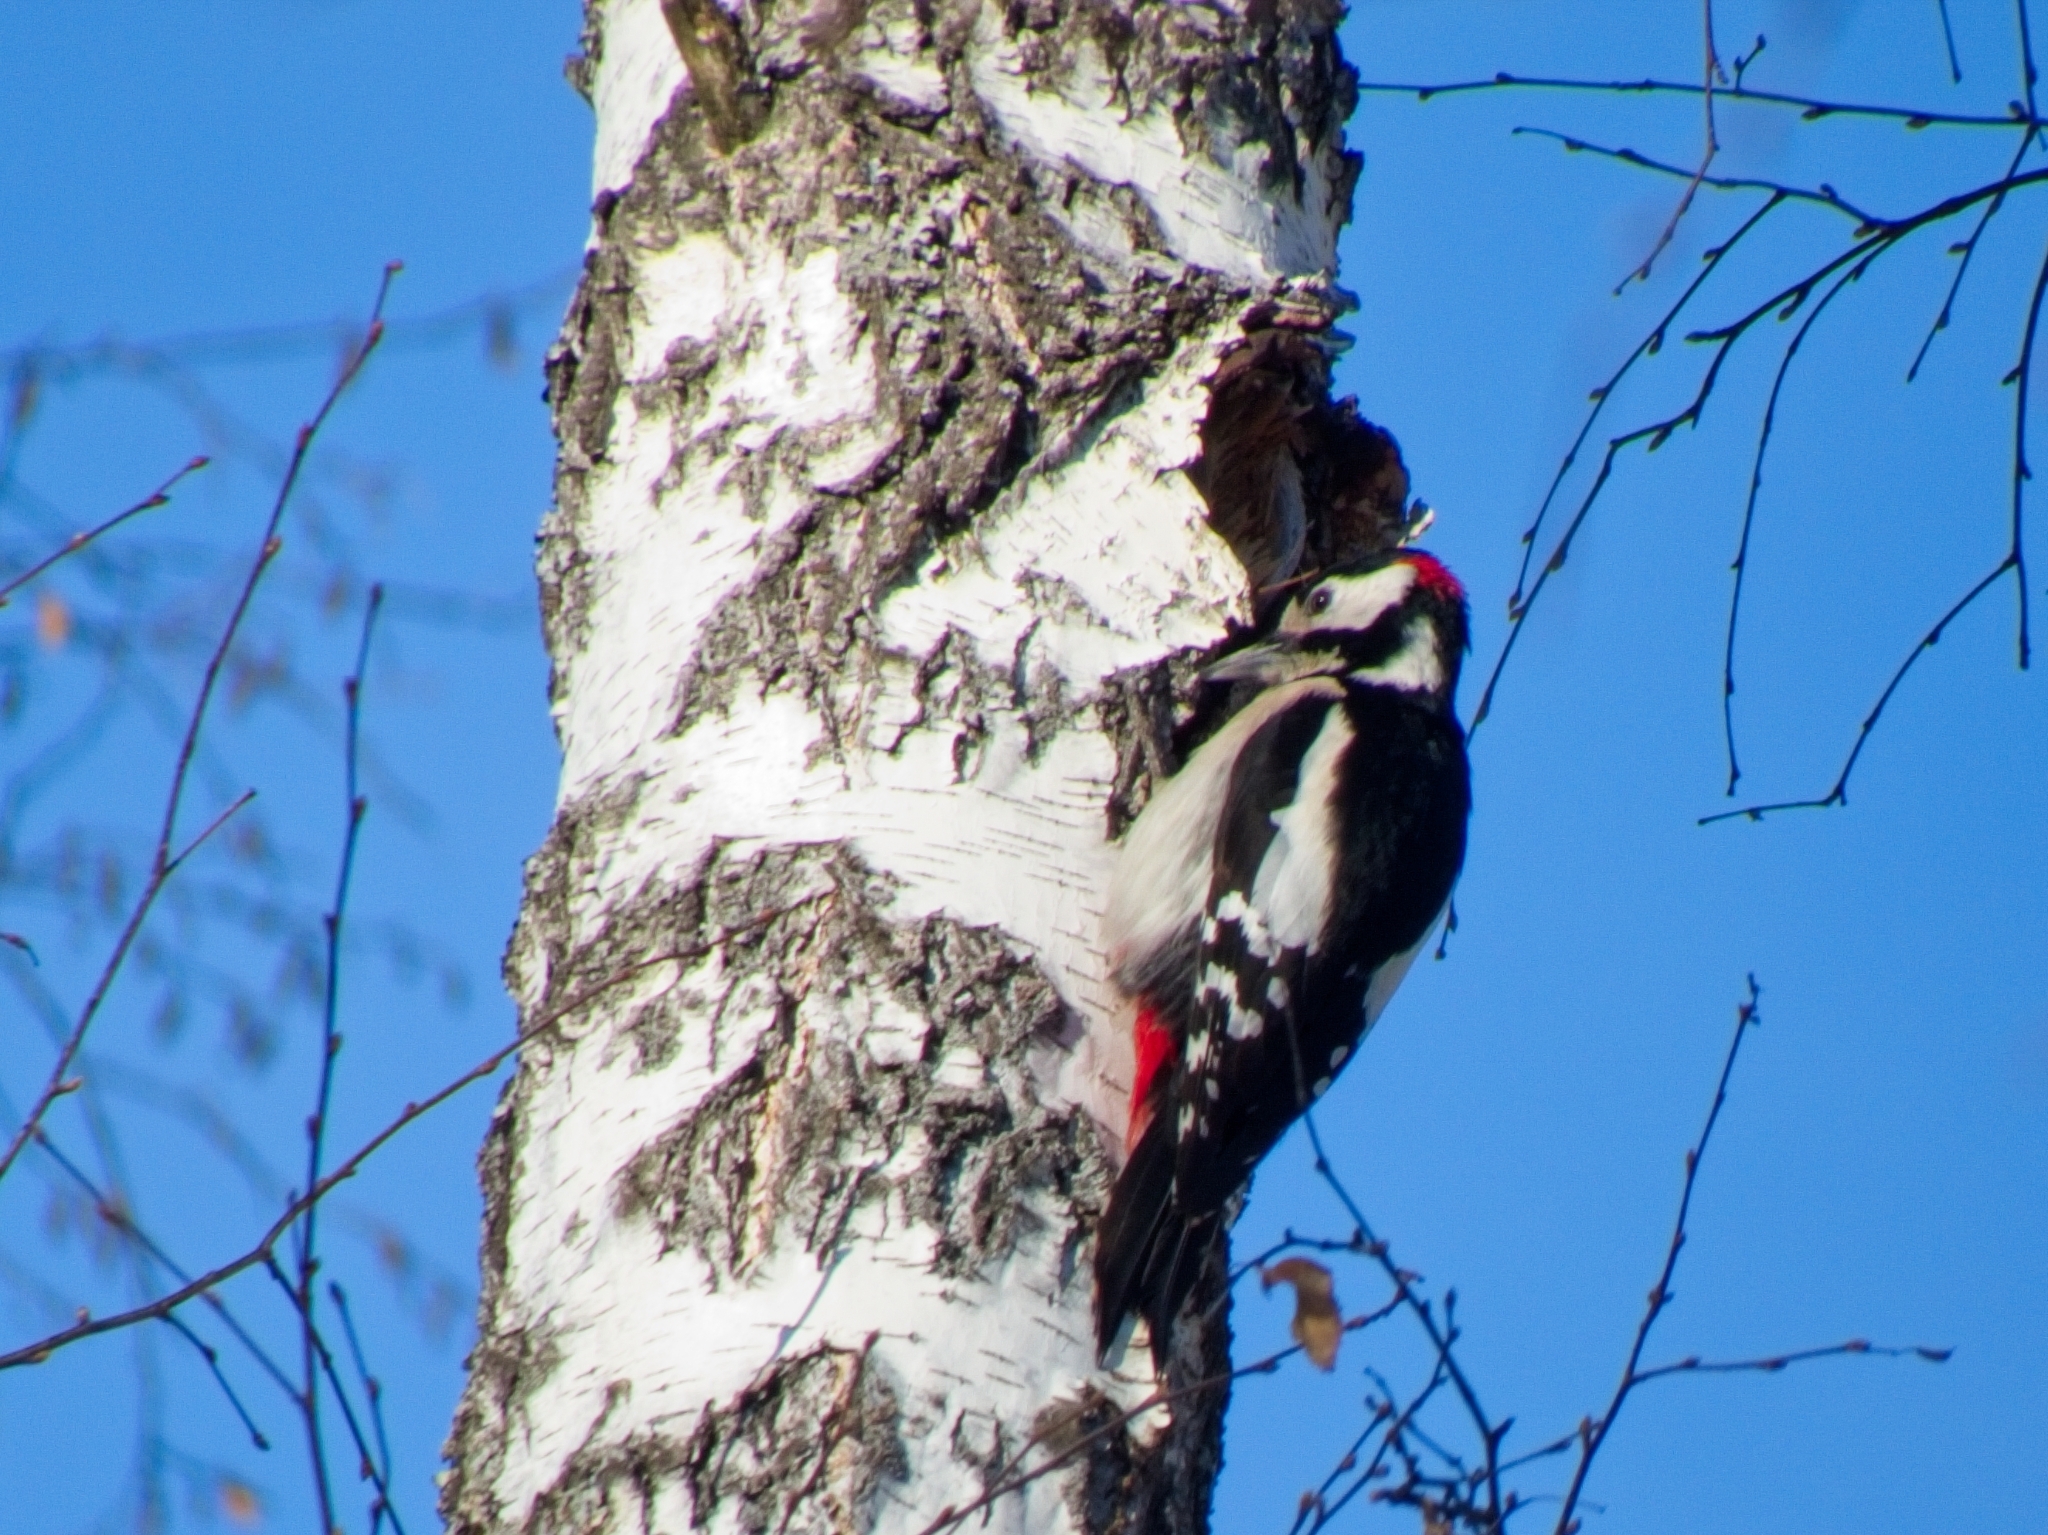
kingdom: Animalia
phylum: Chordata
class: Aves
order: Piciformes
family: Picidae
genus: Dendrocopos
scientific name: Dendrocopos major
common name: Great spotted woodpecker
